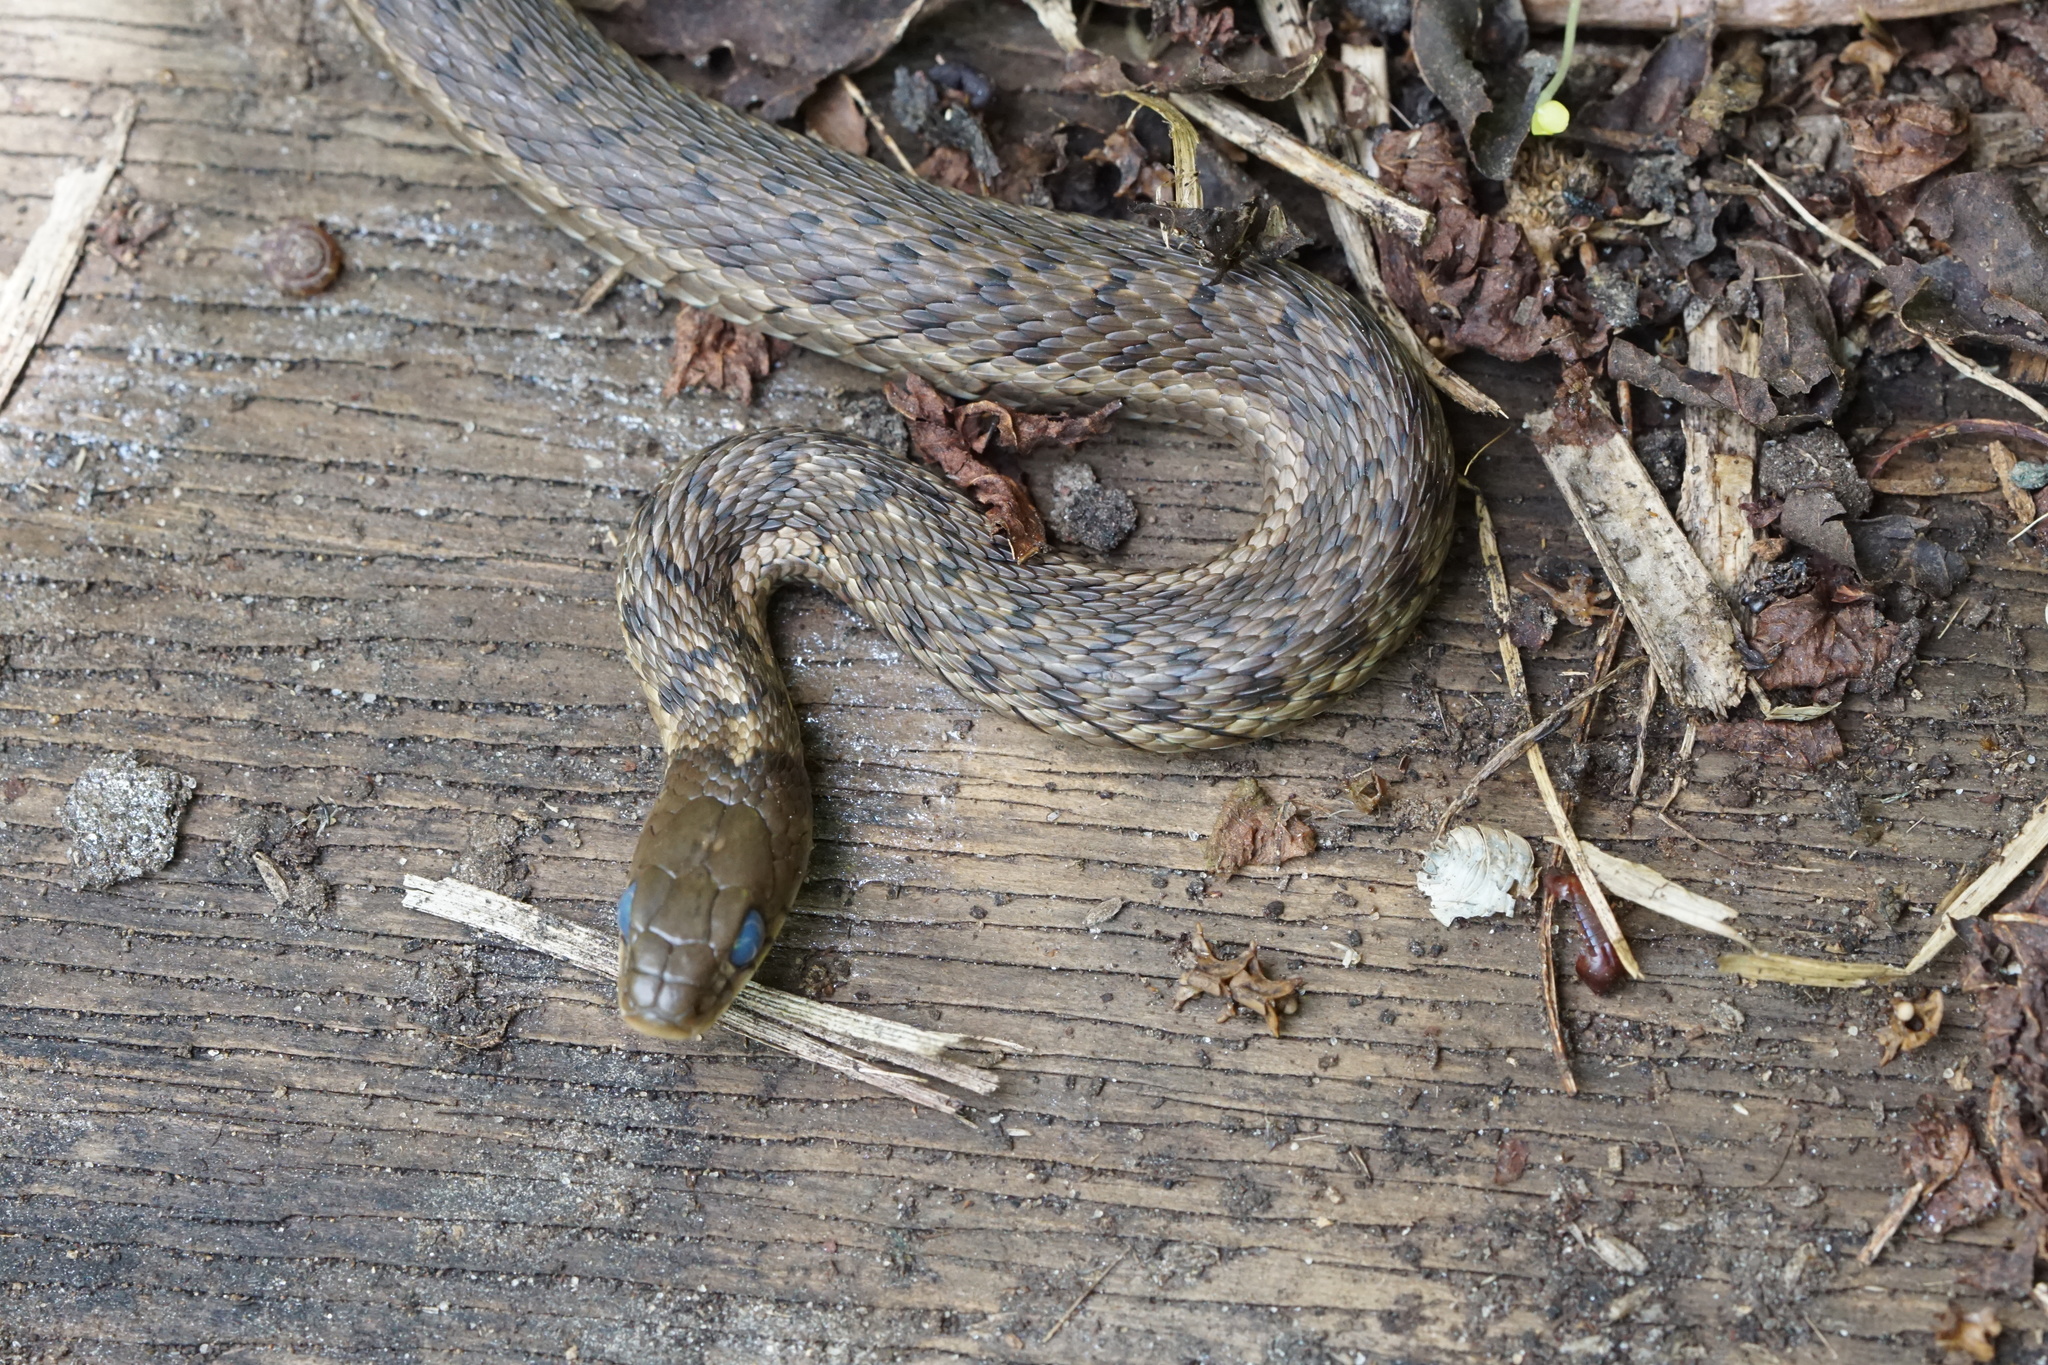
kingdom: Animalia
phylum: Chordata
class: Squamata
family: Colubridae
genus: Thamnophis
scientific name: Thamnophis sirtalis
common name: Common garter snake
